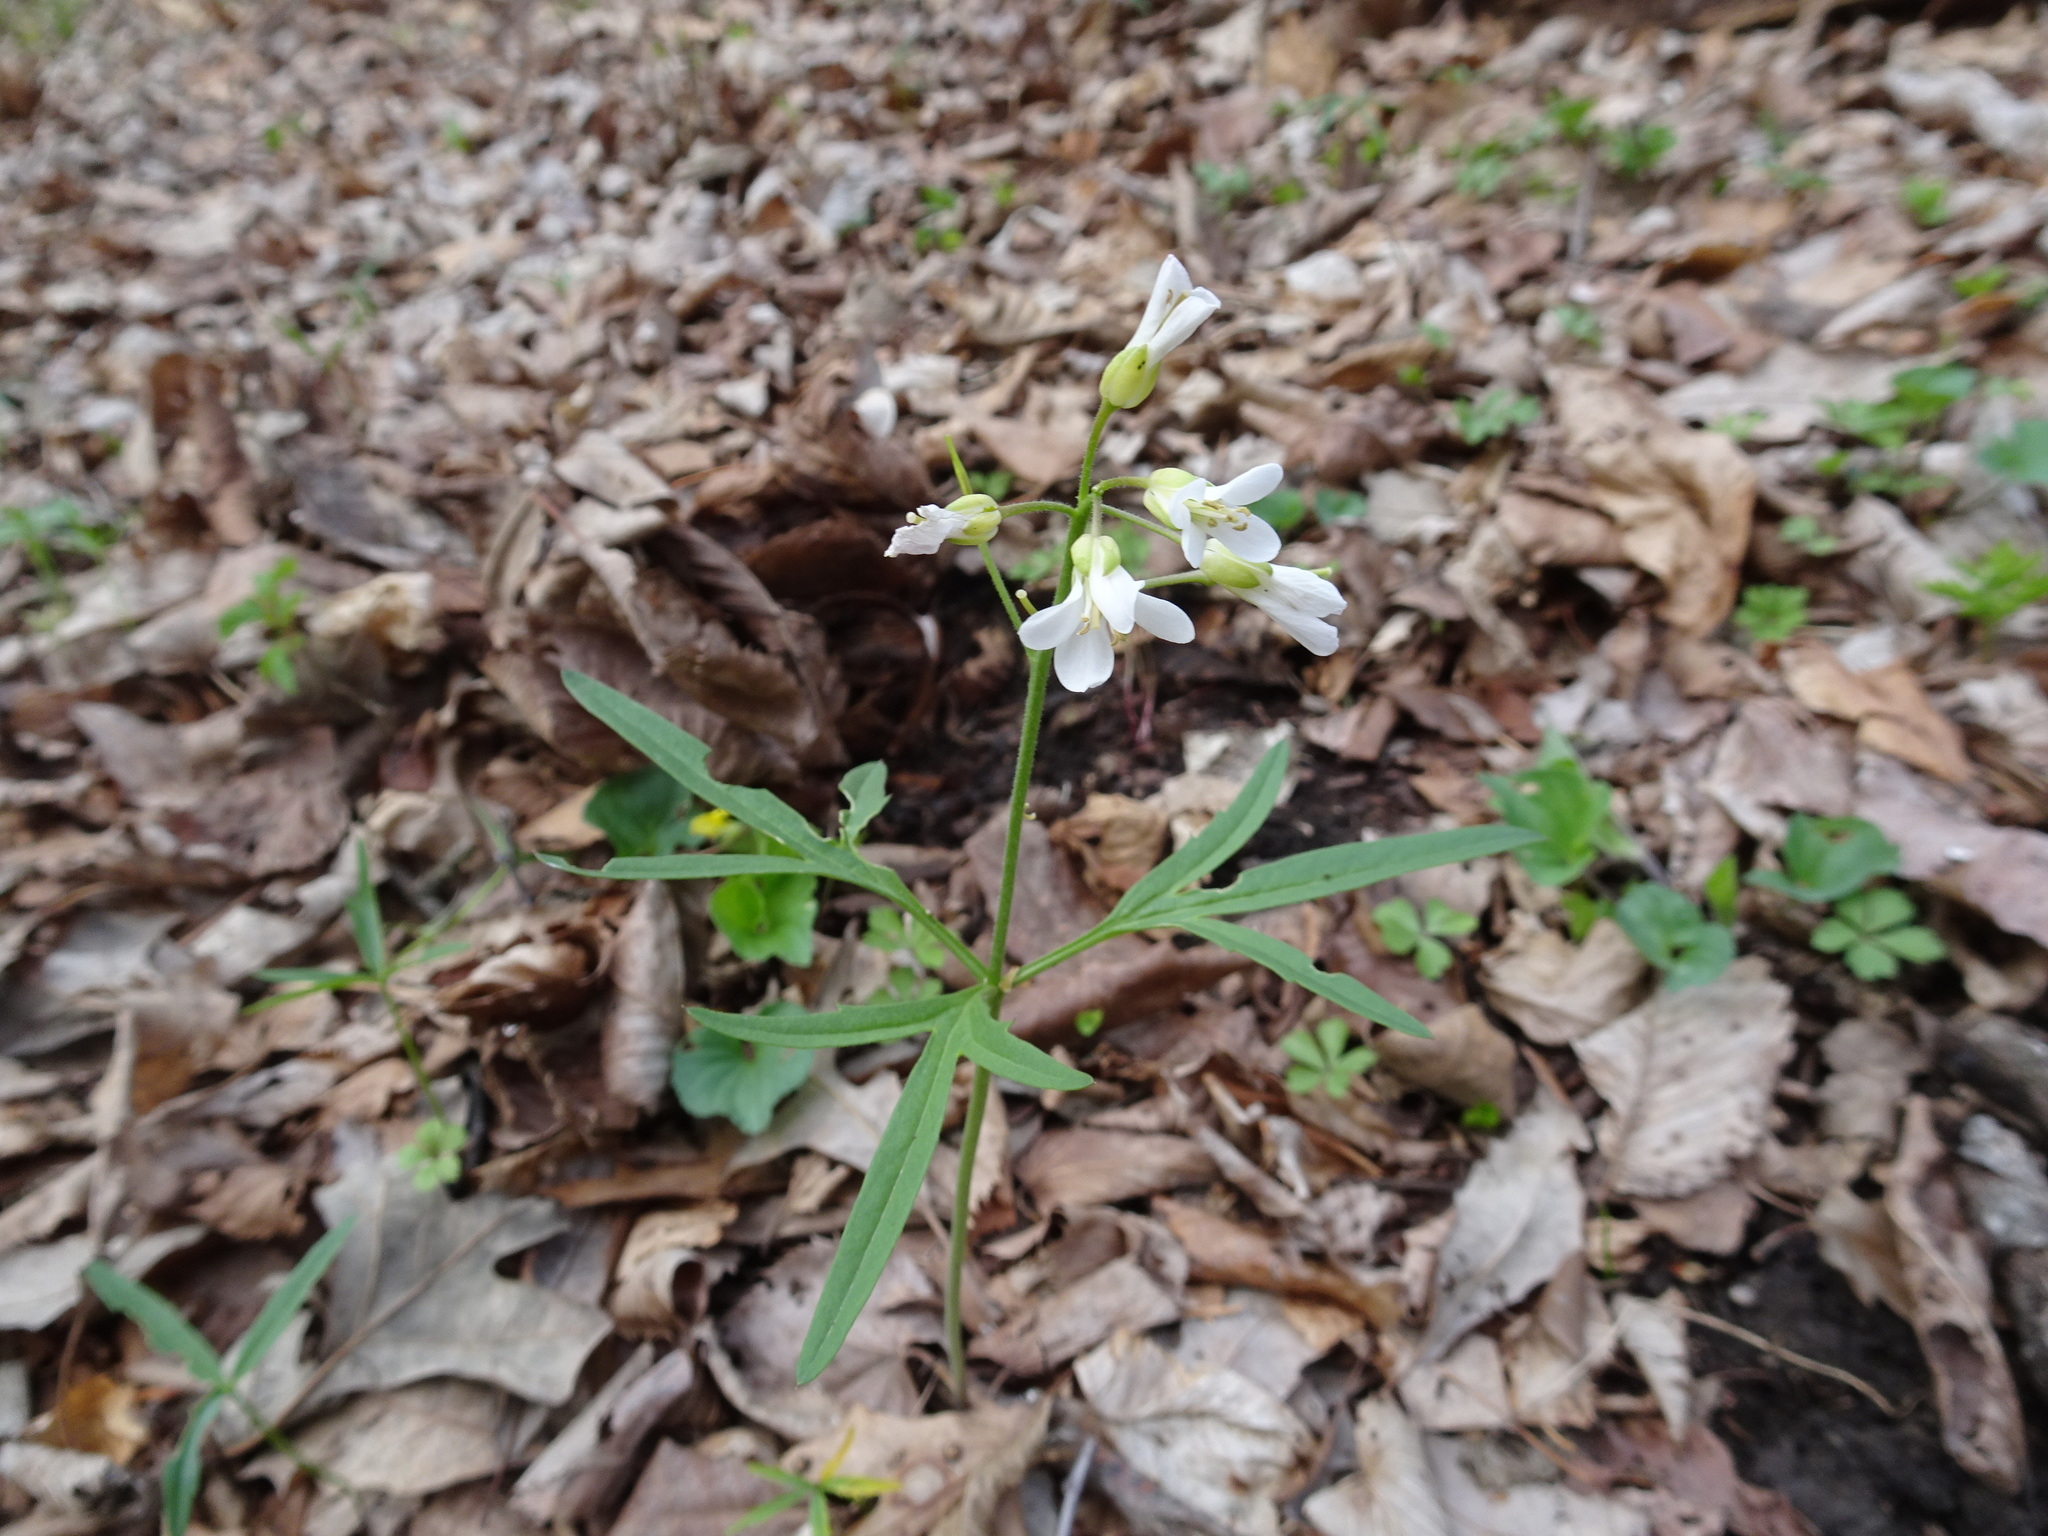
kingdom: Plantae
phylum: Tracheophyta
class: Magnoliopsida
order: Brassicales
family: Brassicaceae
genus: Cardamine
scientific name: Cardamine concatenata
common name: Cut-leaf toothcup
